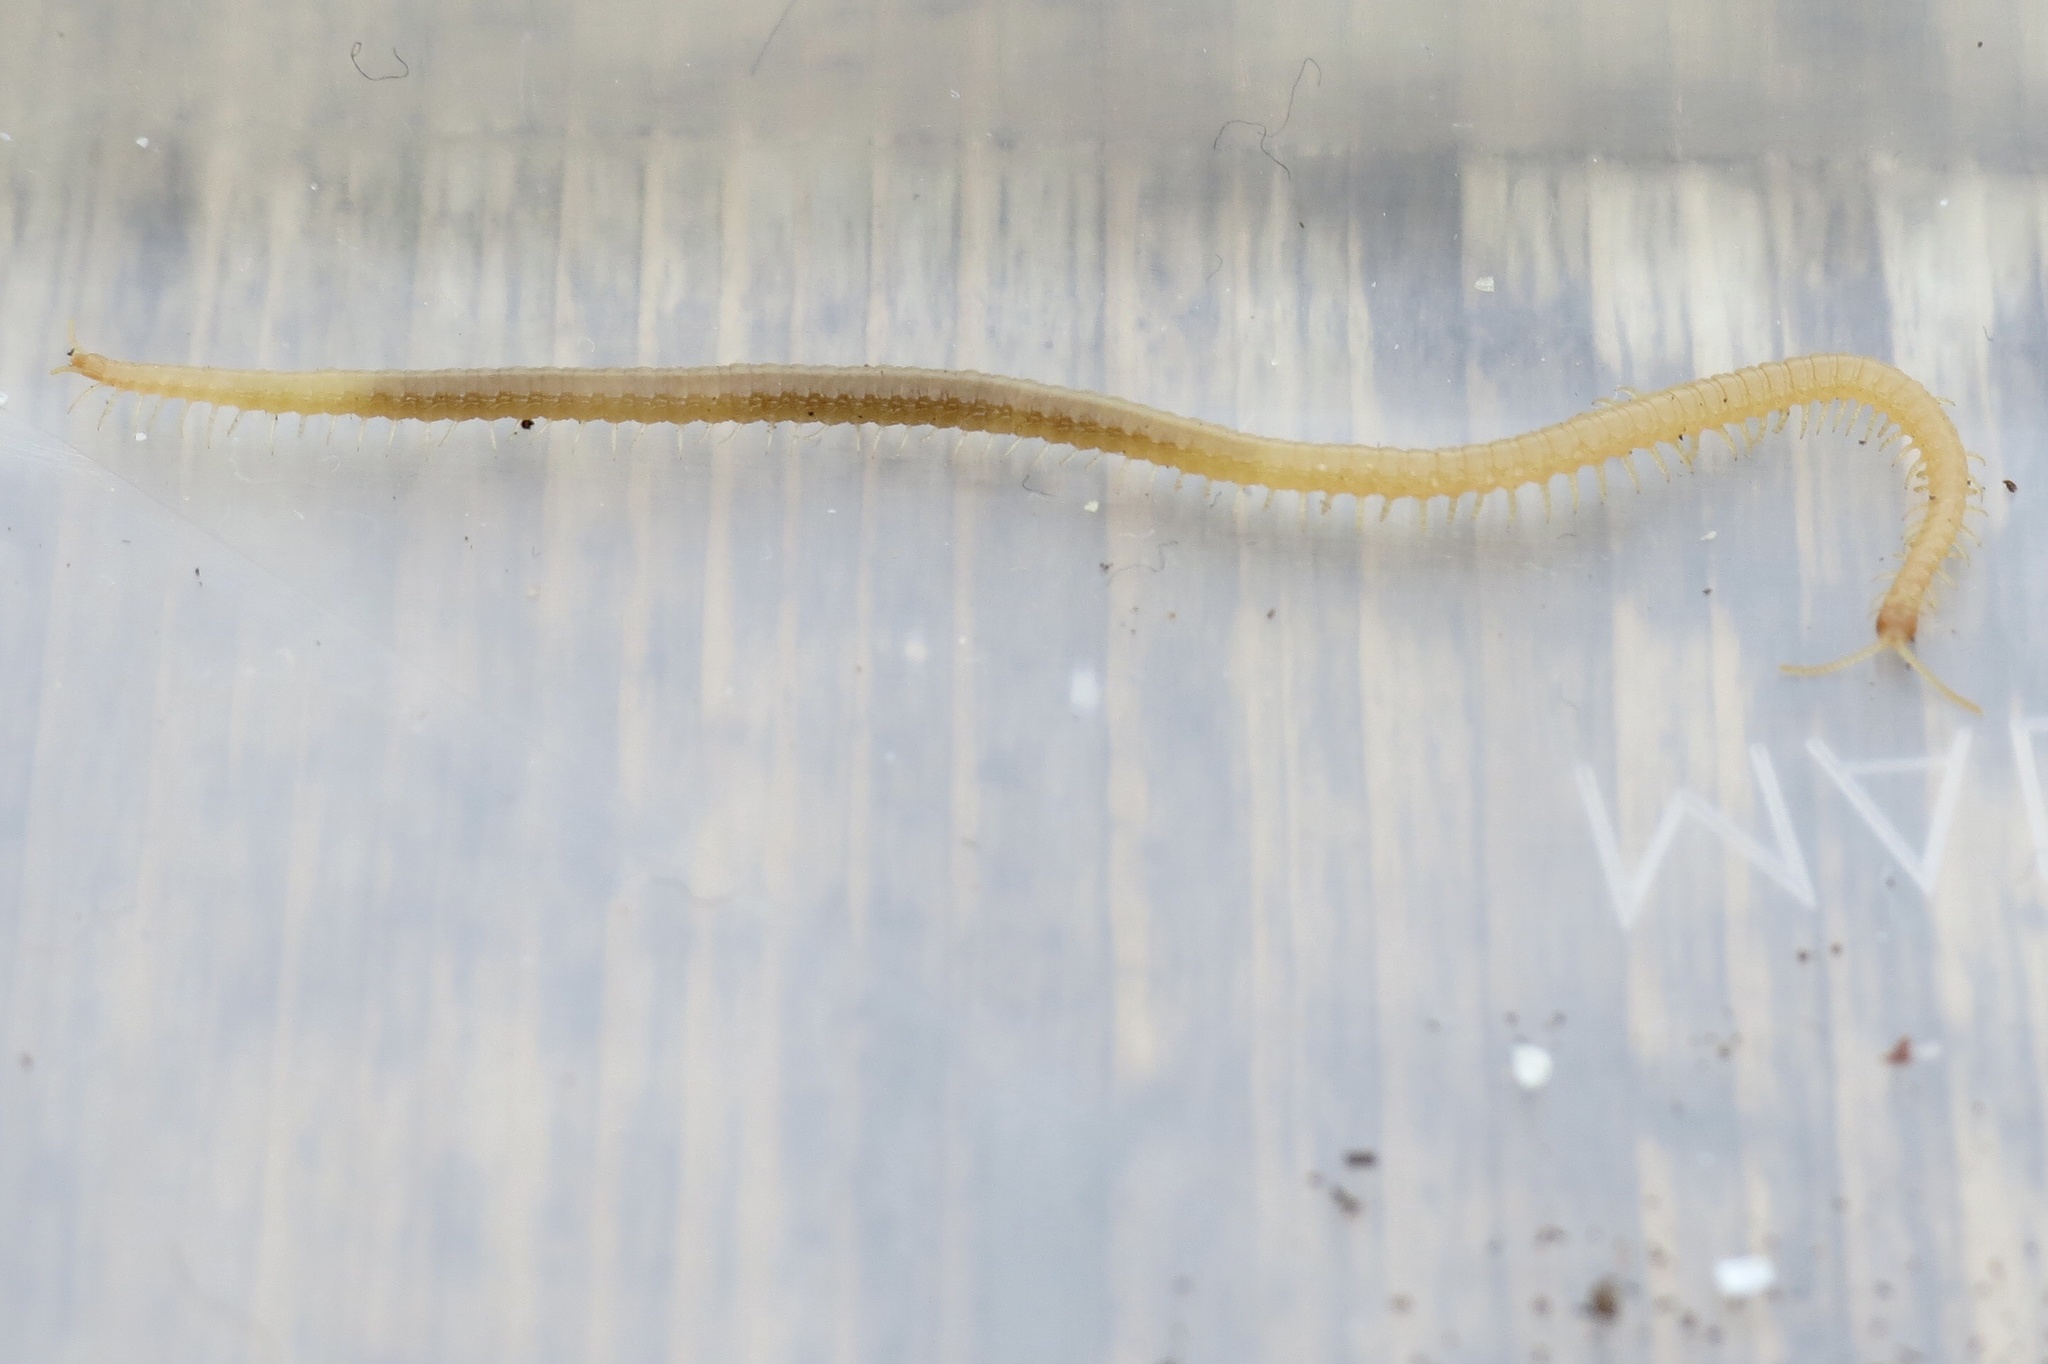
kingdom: Animalia
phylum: Arthropoda
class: Chilopoda
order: Geophilomorpha
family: Himantariidae
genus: Stigmatogaster
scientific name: Stigmatogaster subterranea
